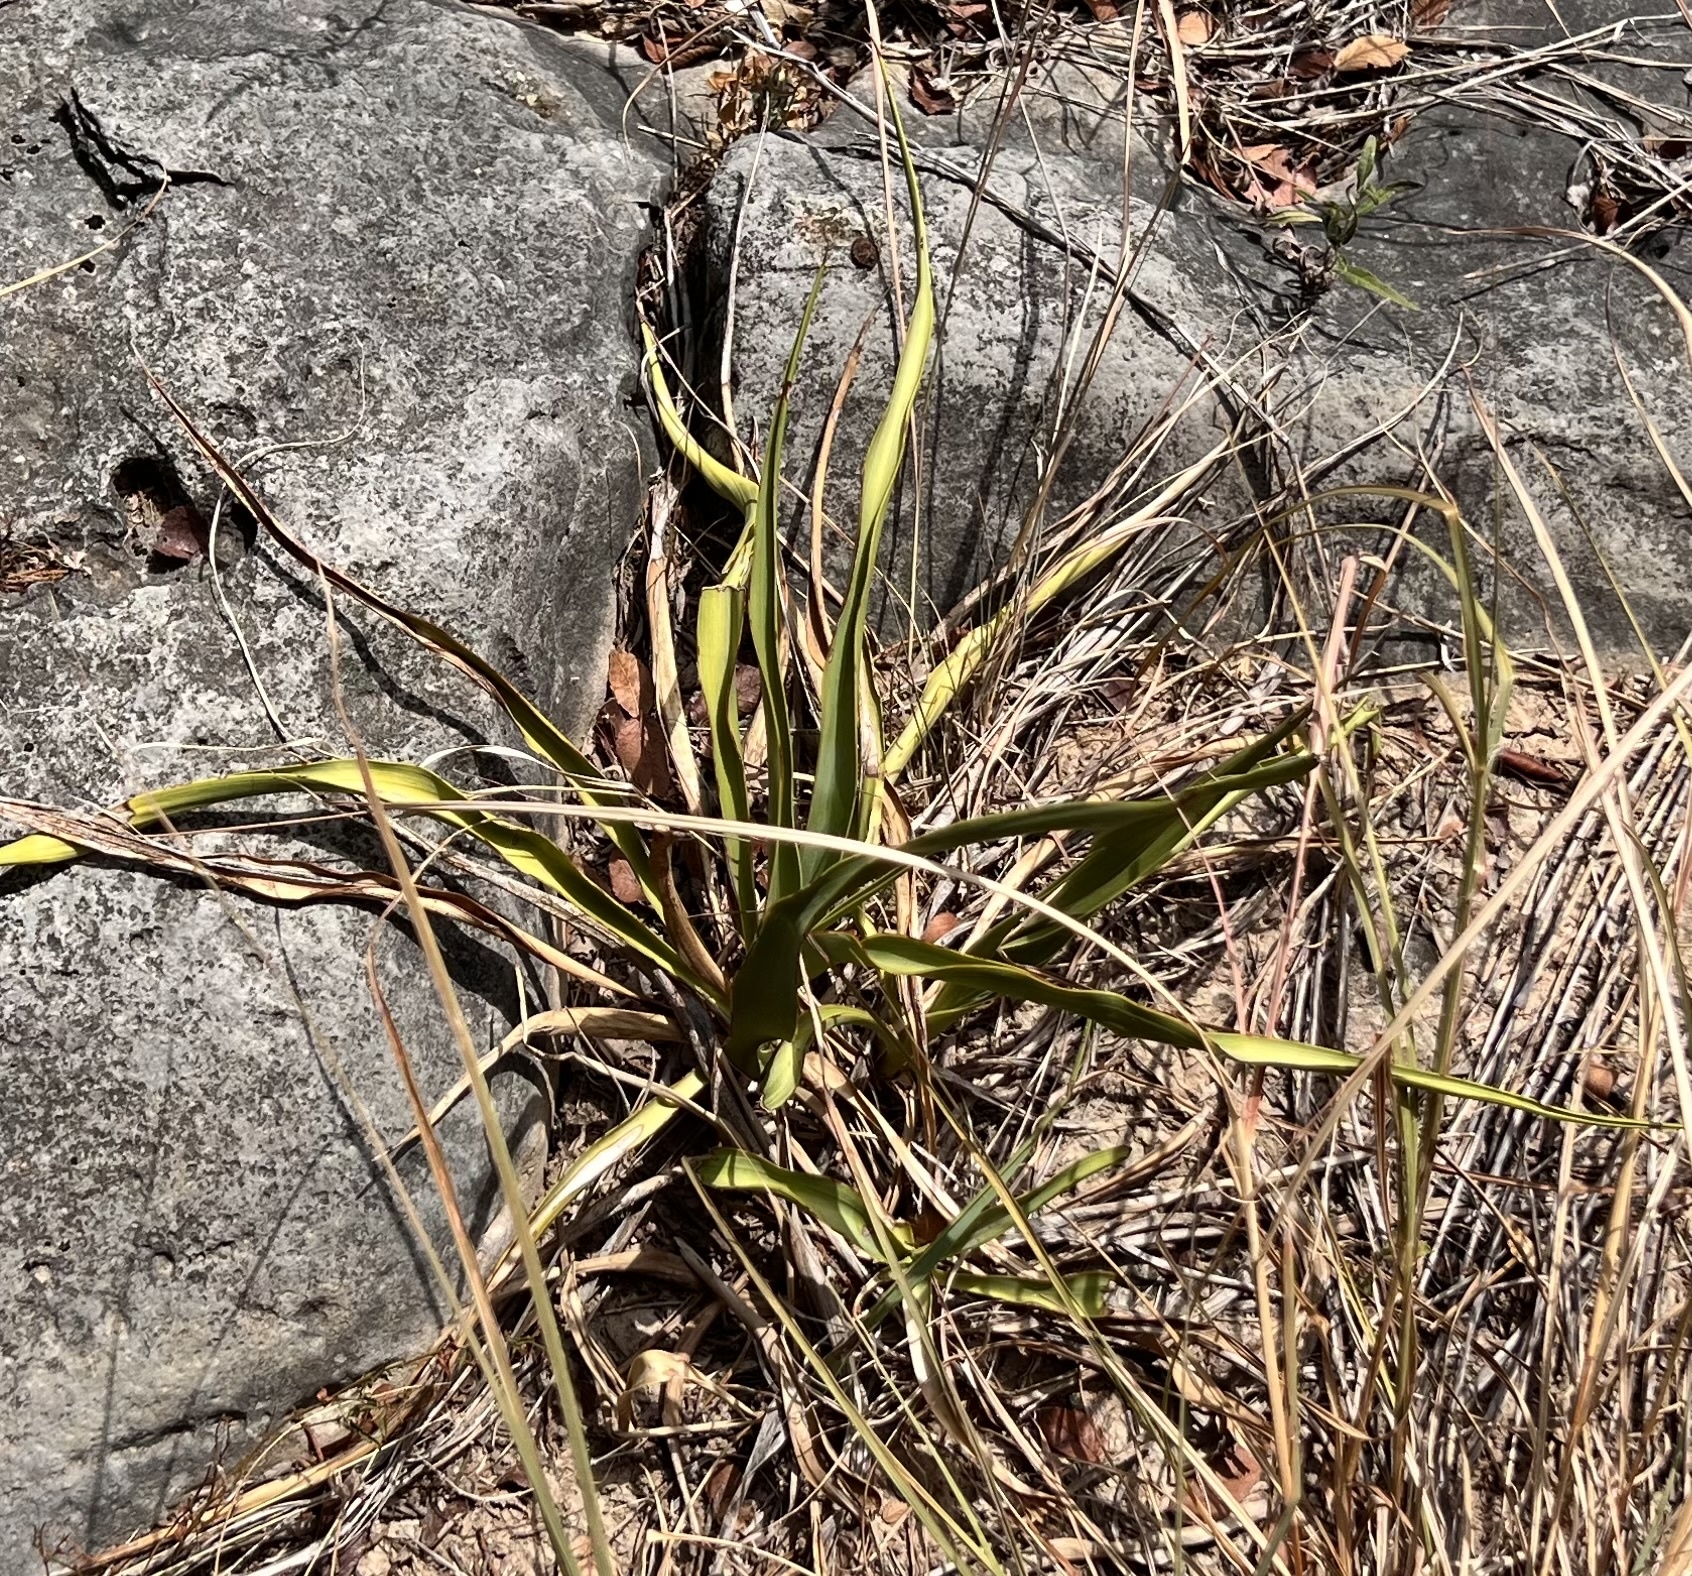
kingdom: Plantae
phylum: Tracheophyta
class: Liliopsida
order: Asparagales
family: Asparagaceae
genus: Yucca
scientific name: Yucca rupicola
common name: Twisted-leaf spanish-dagger
